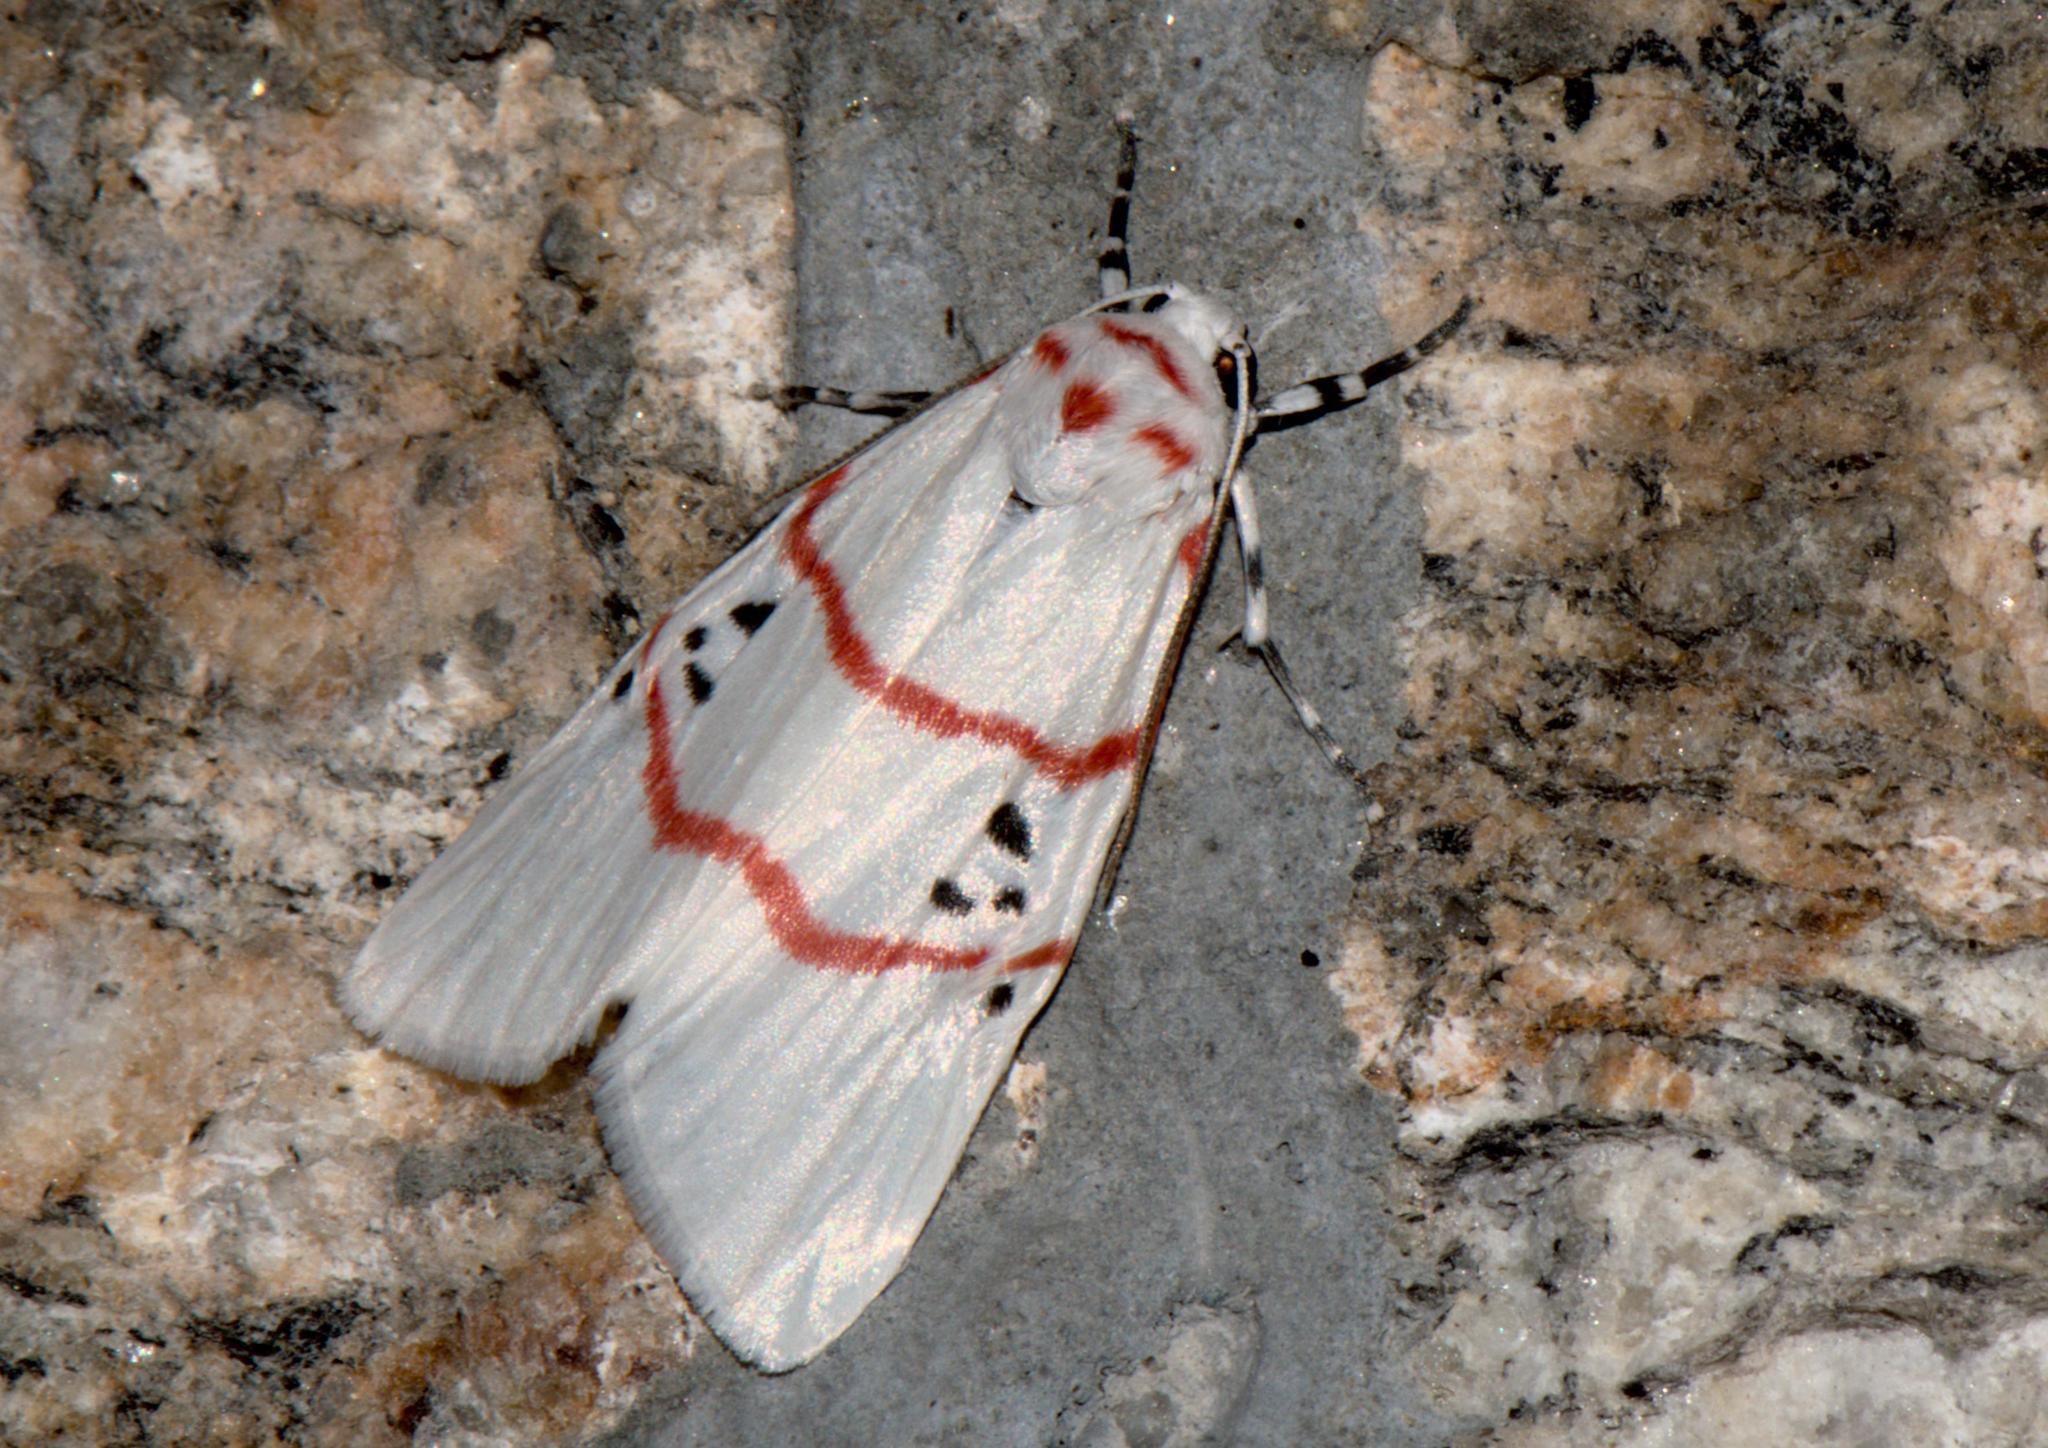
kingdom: Animalia
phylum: Arthropoda
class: Insecta
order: Lepidoptera
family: Erebidae
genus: Cyana
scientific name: Cyana adita
